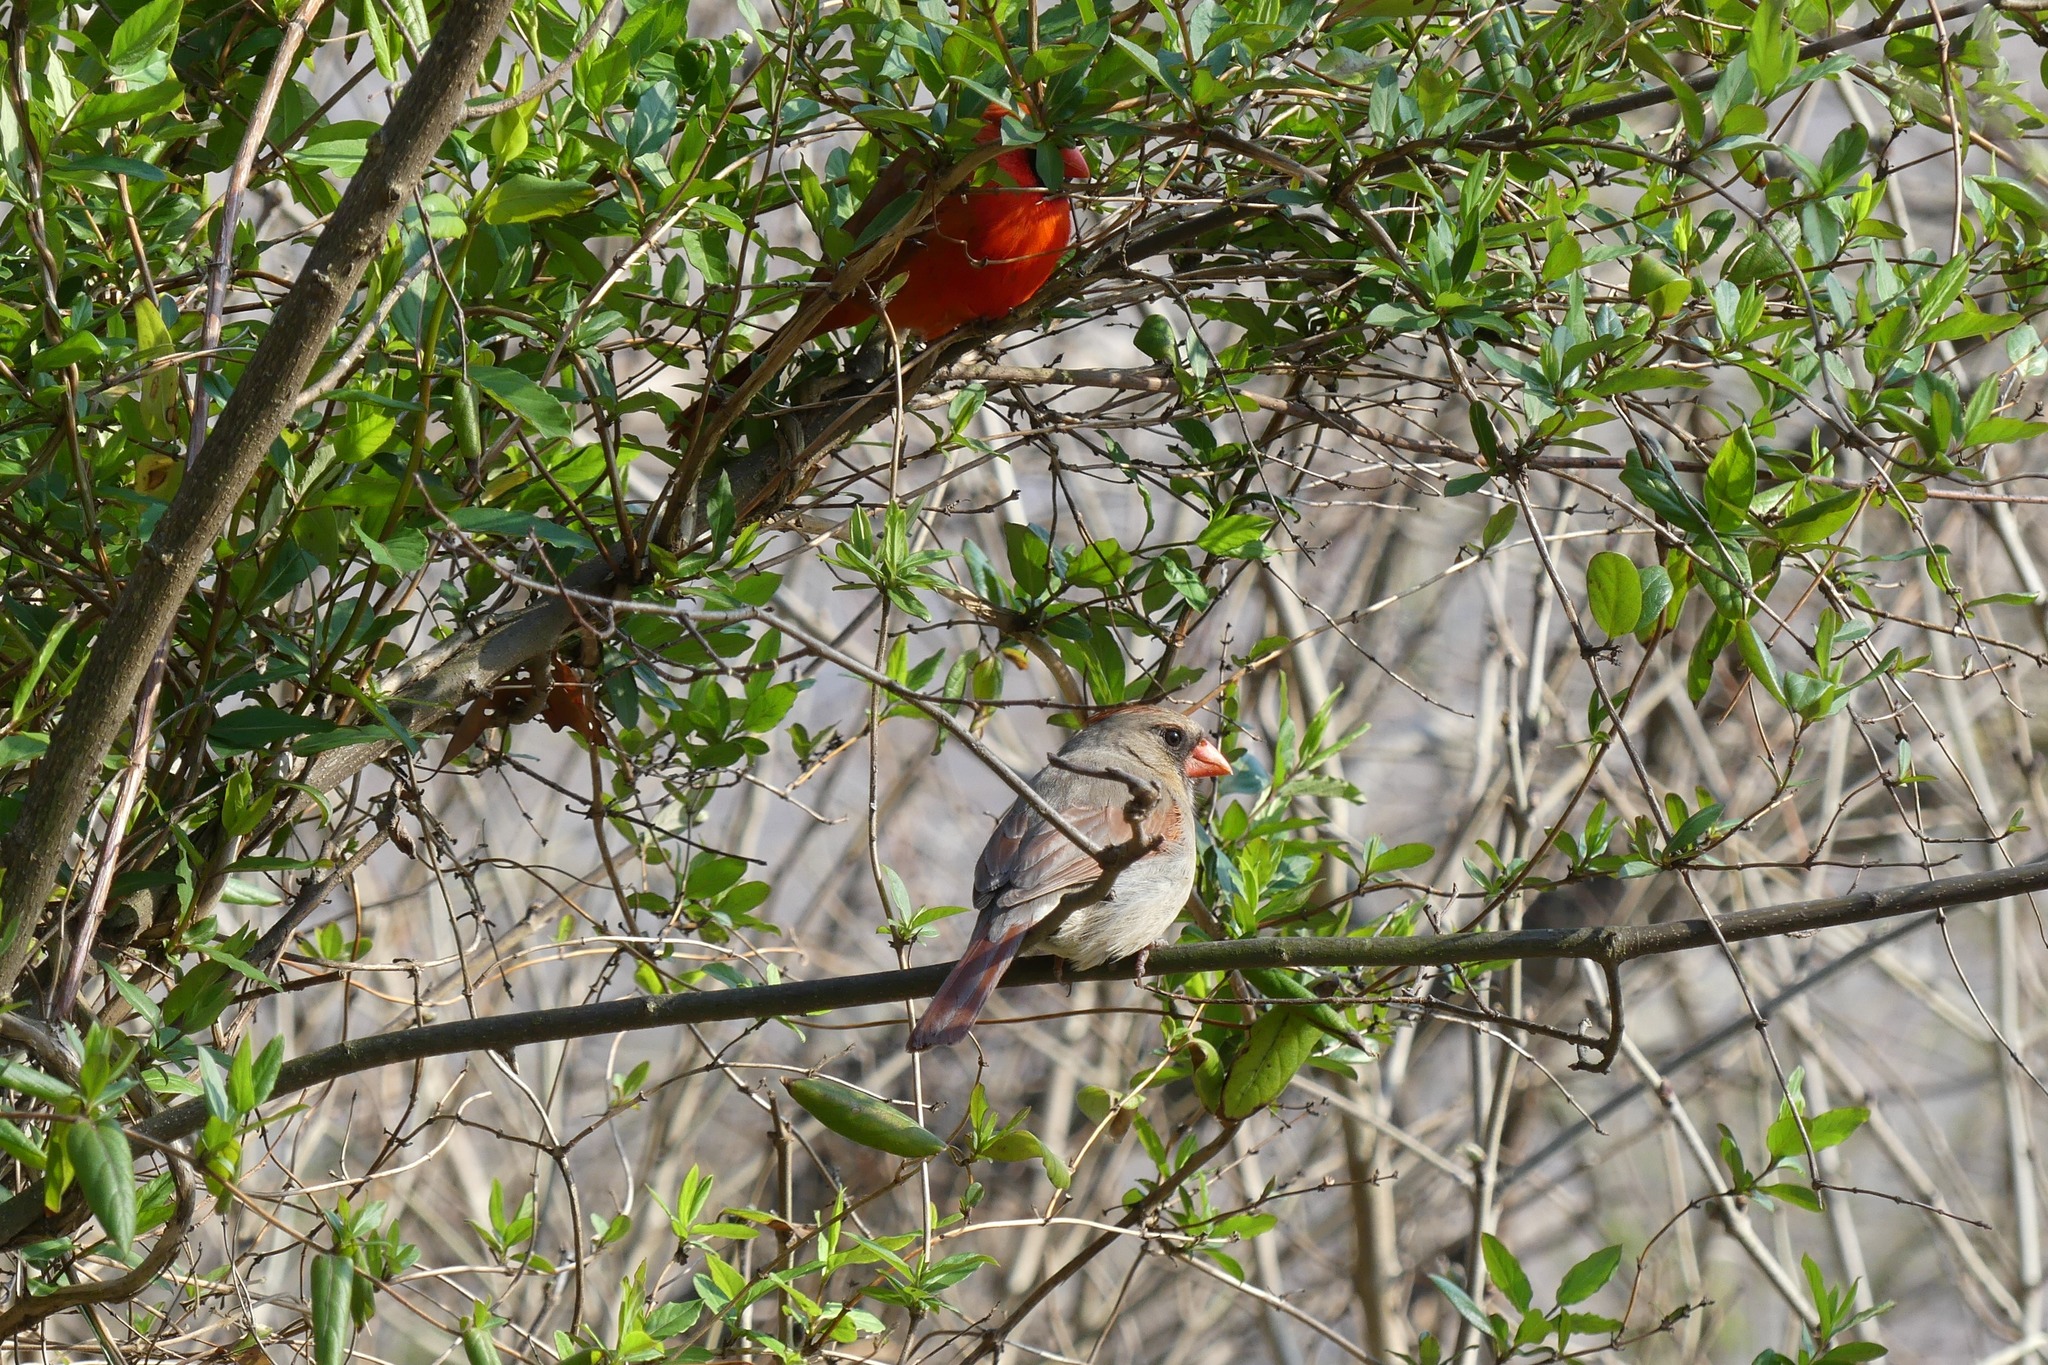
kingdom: Animalia
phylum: Chordata
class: Aves
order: Passeriformes
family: Cardinalidae
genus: Cardinalis
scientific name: Cardinalis cardinalis
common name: Northern cardinal
